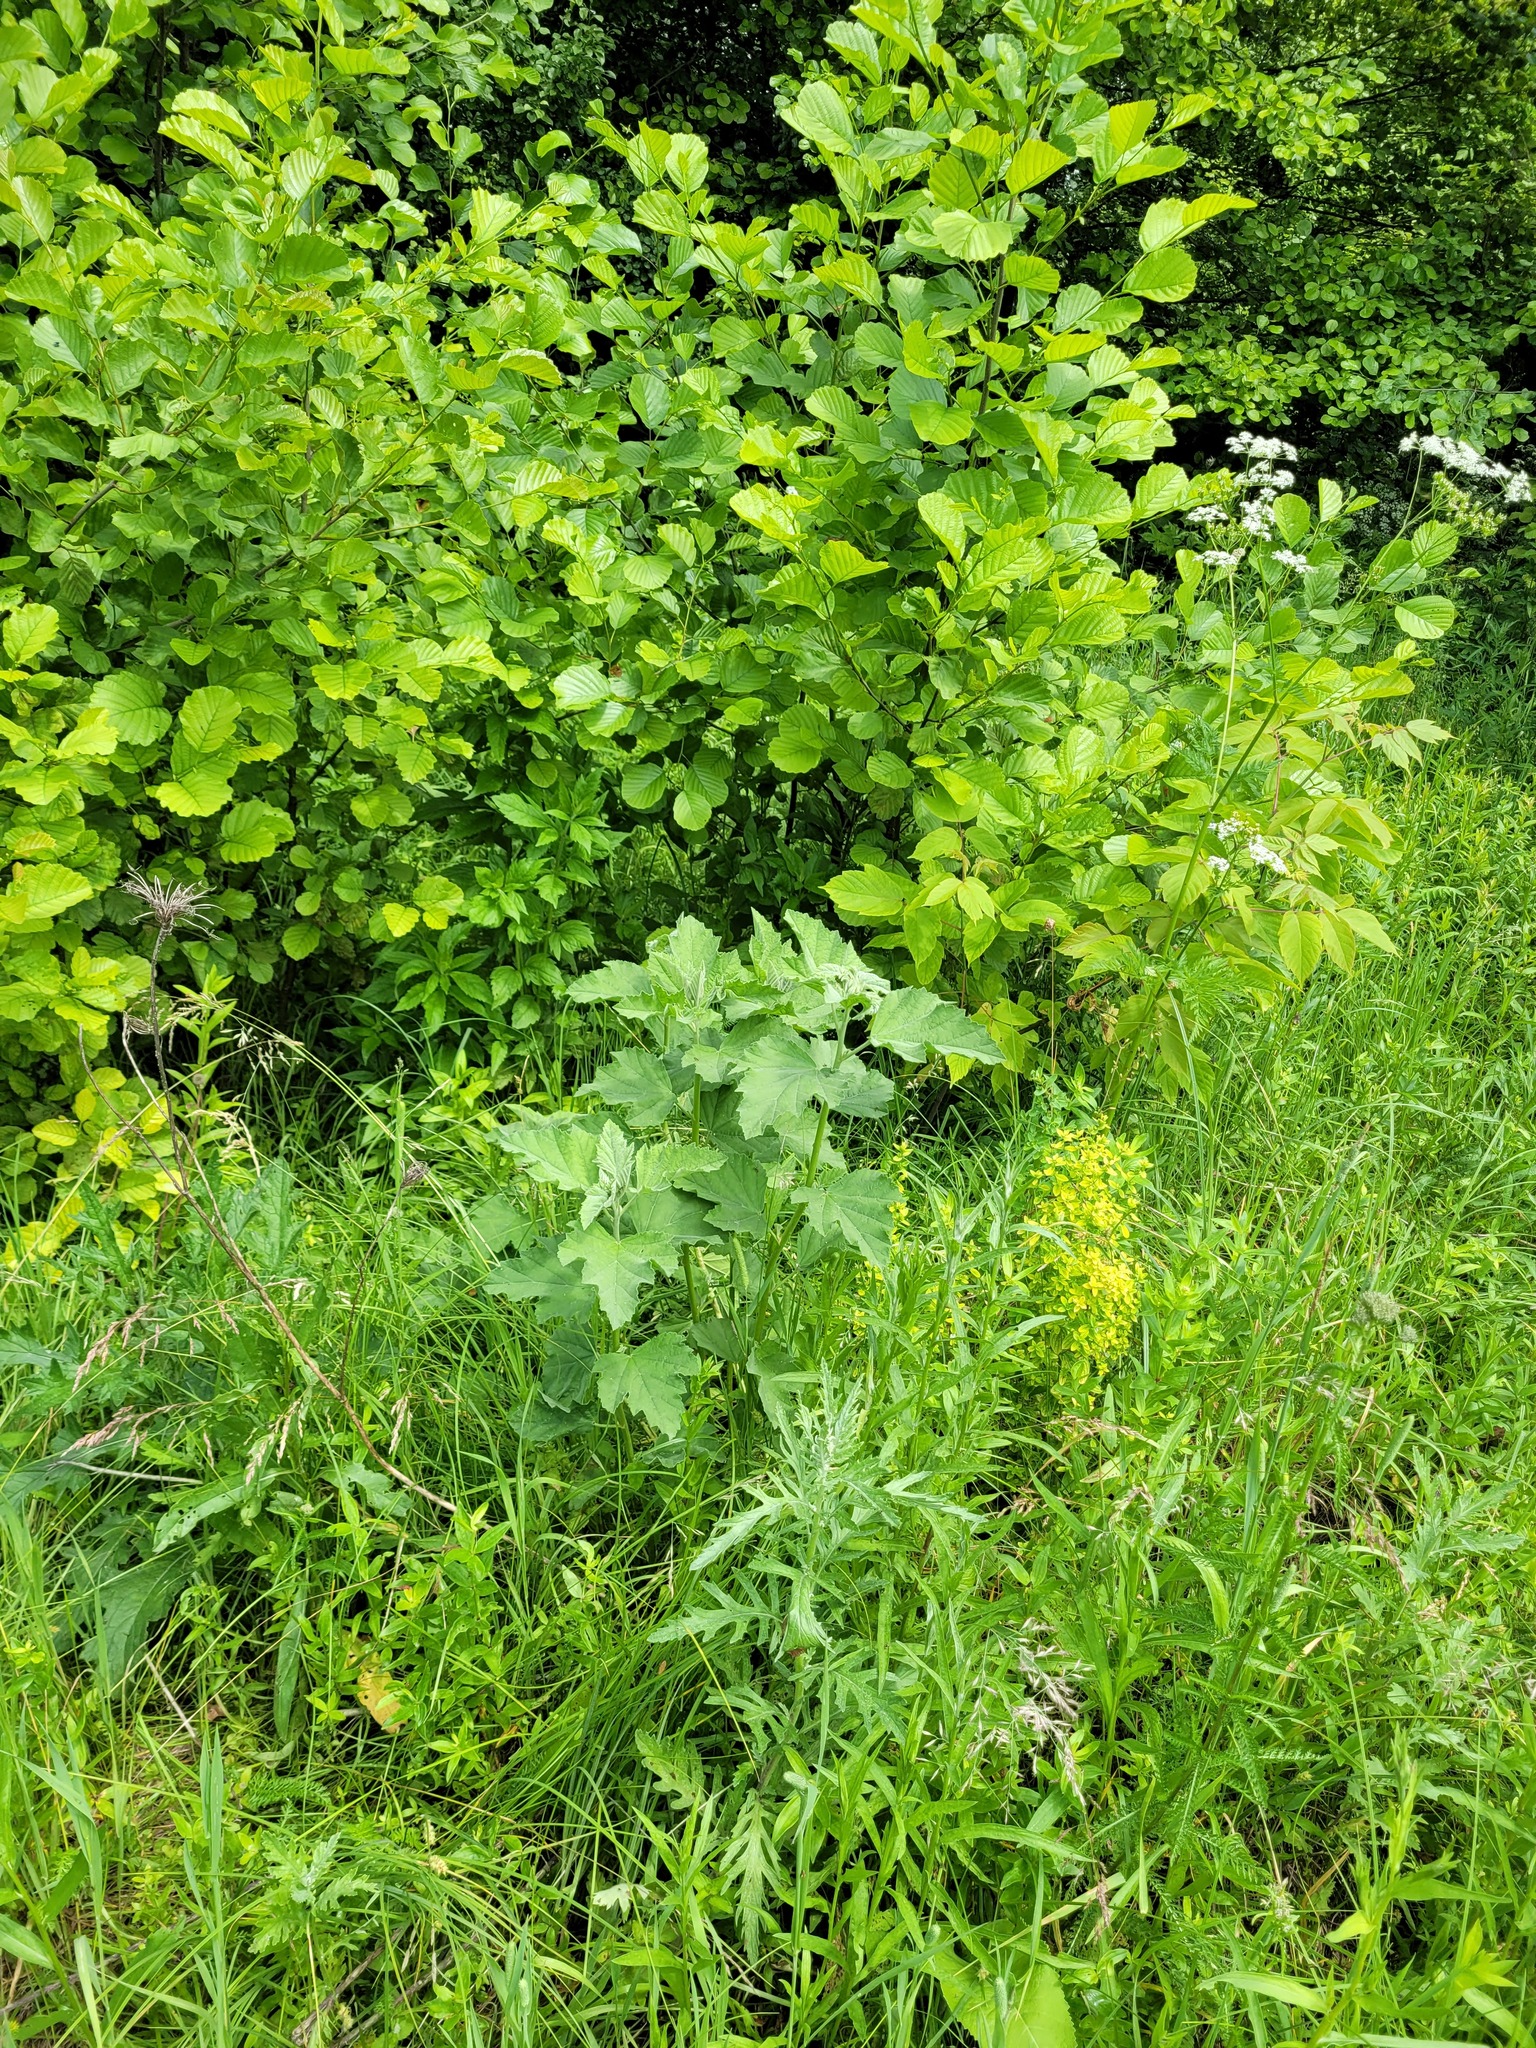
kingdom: Plantae
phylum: Tracheophyta
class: Magnoliopsida
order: Malvales
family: Malvaceae
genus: Althaea
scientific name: Althaea officinalis
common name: Marsh-mallow
